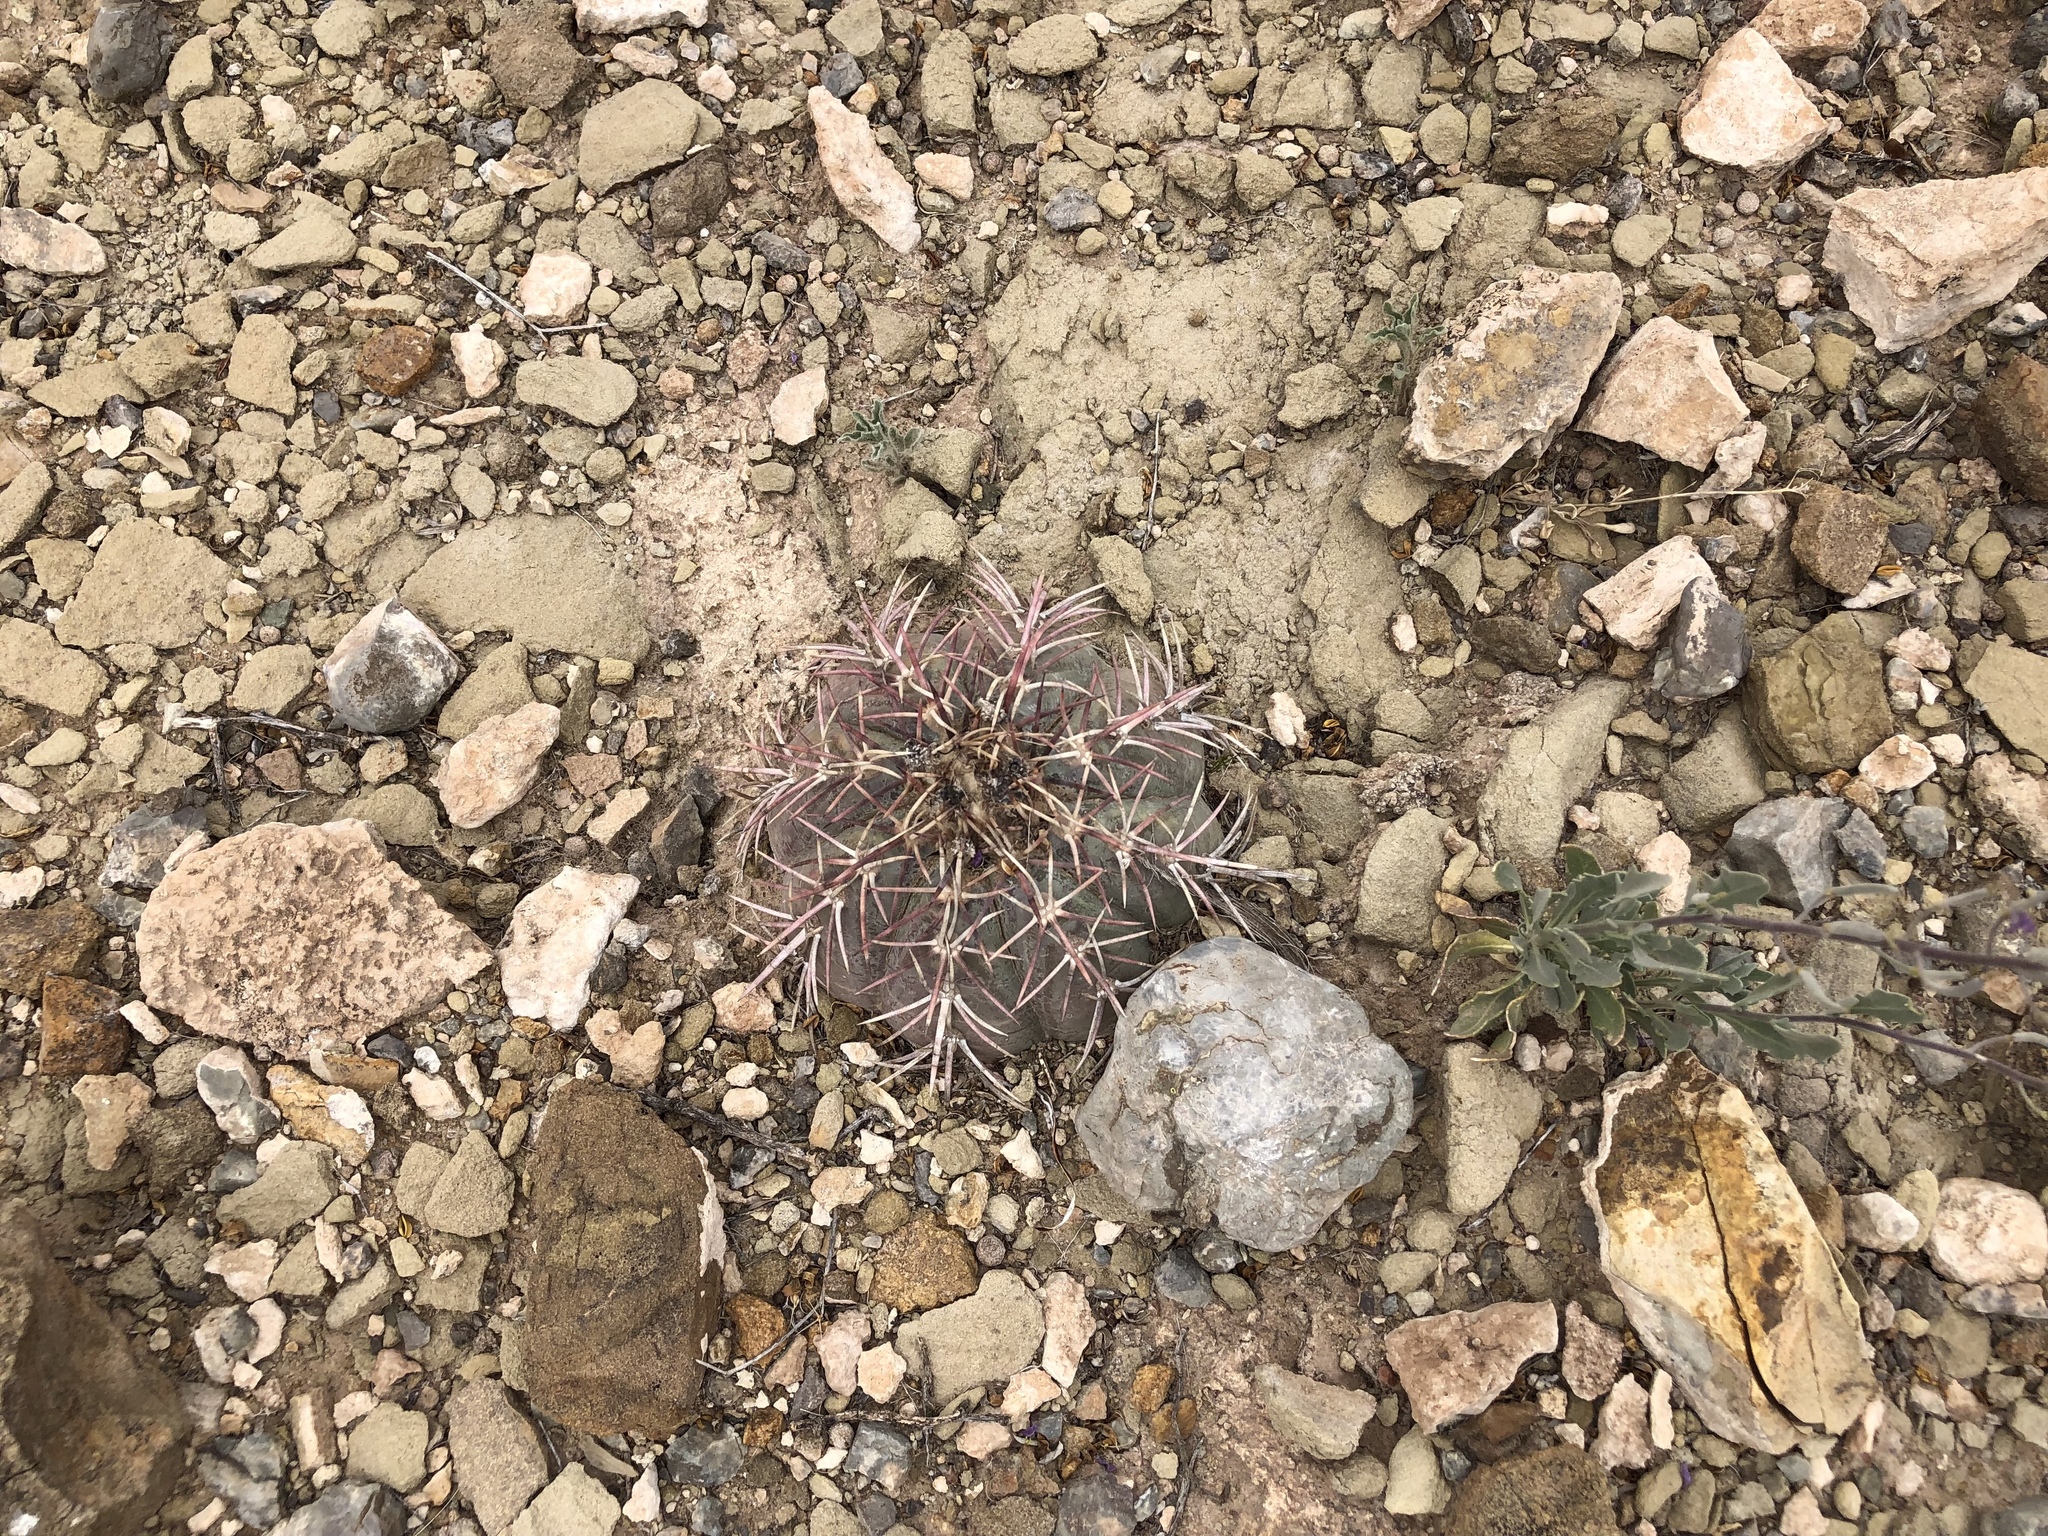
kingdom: Plantae
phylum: Tracheophyta
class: Magnoliopsida
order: Caryophyllales
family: Cactaceae
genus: Echinocactus
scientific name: Echinocactus horizonthalonius
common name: Devilshead
